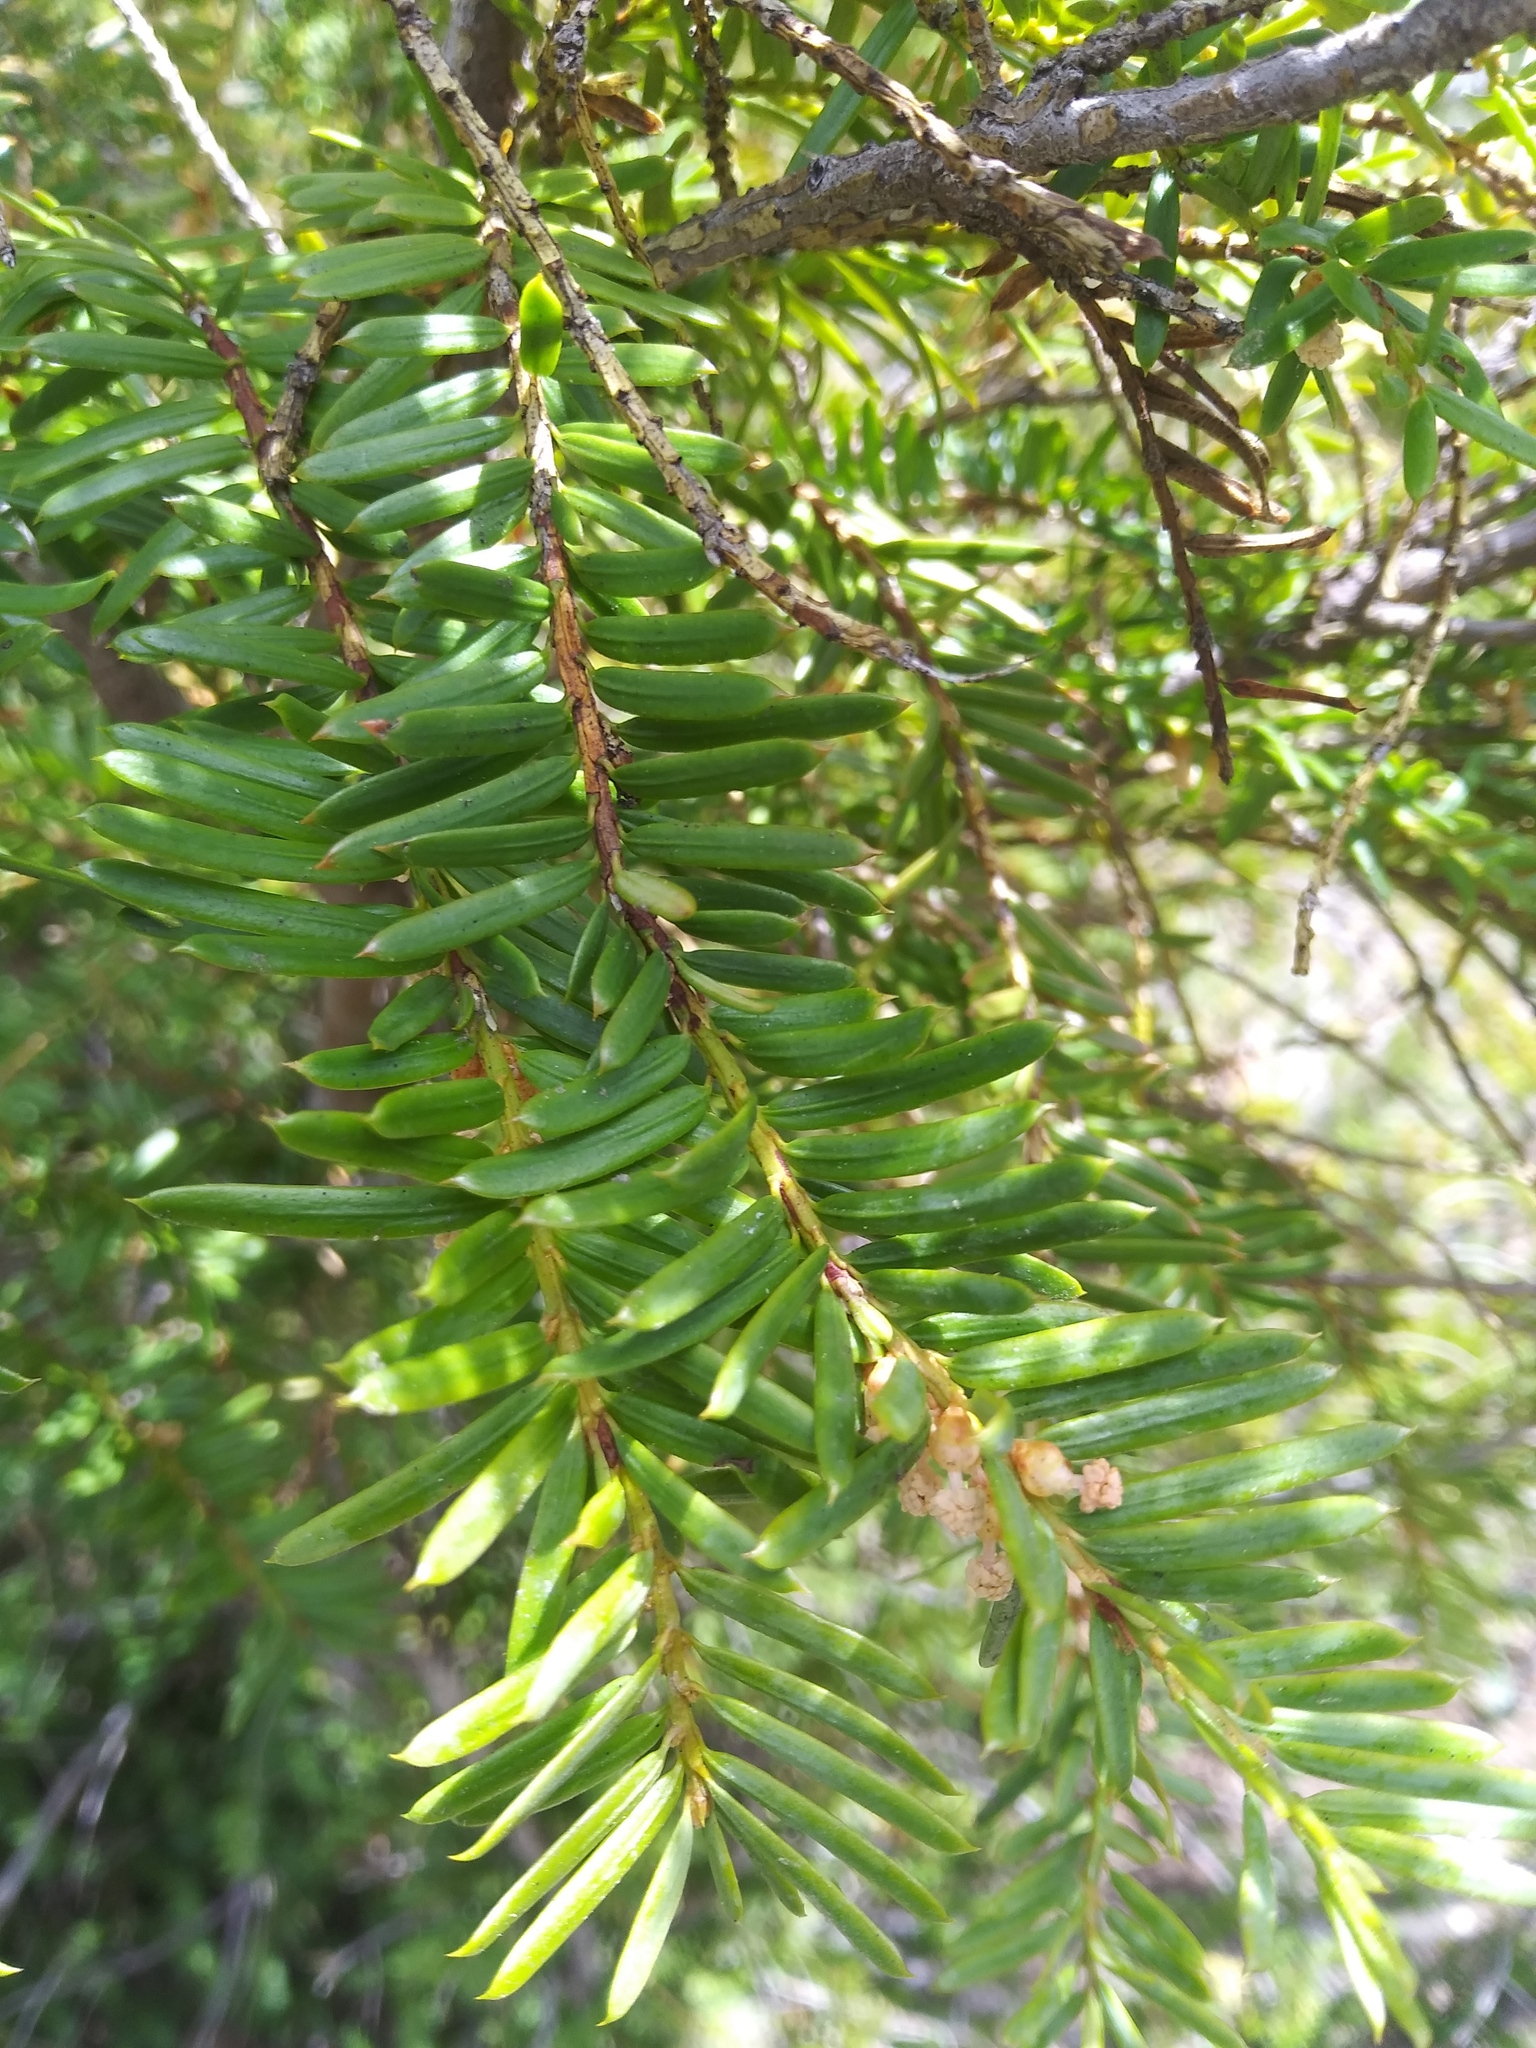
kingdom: Plantae
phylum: Tracheophyta
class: Pinopsida
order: Pinales
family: Taxaceae
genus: Taxus
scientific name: Taxus brevifolia
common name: Pacific yew
